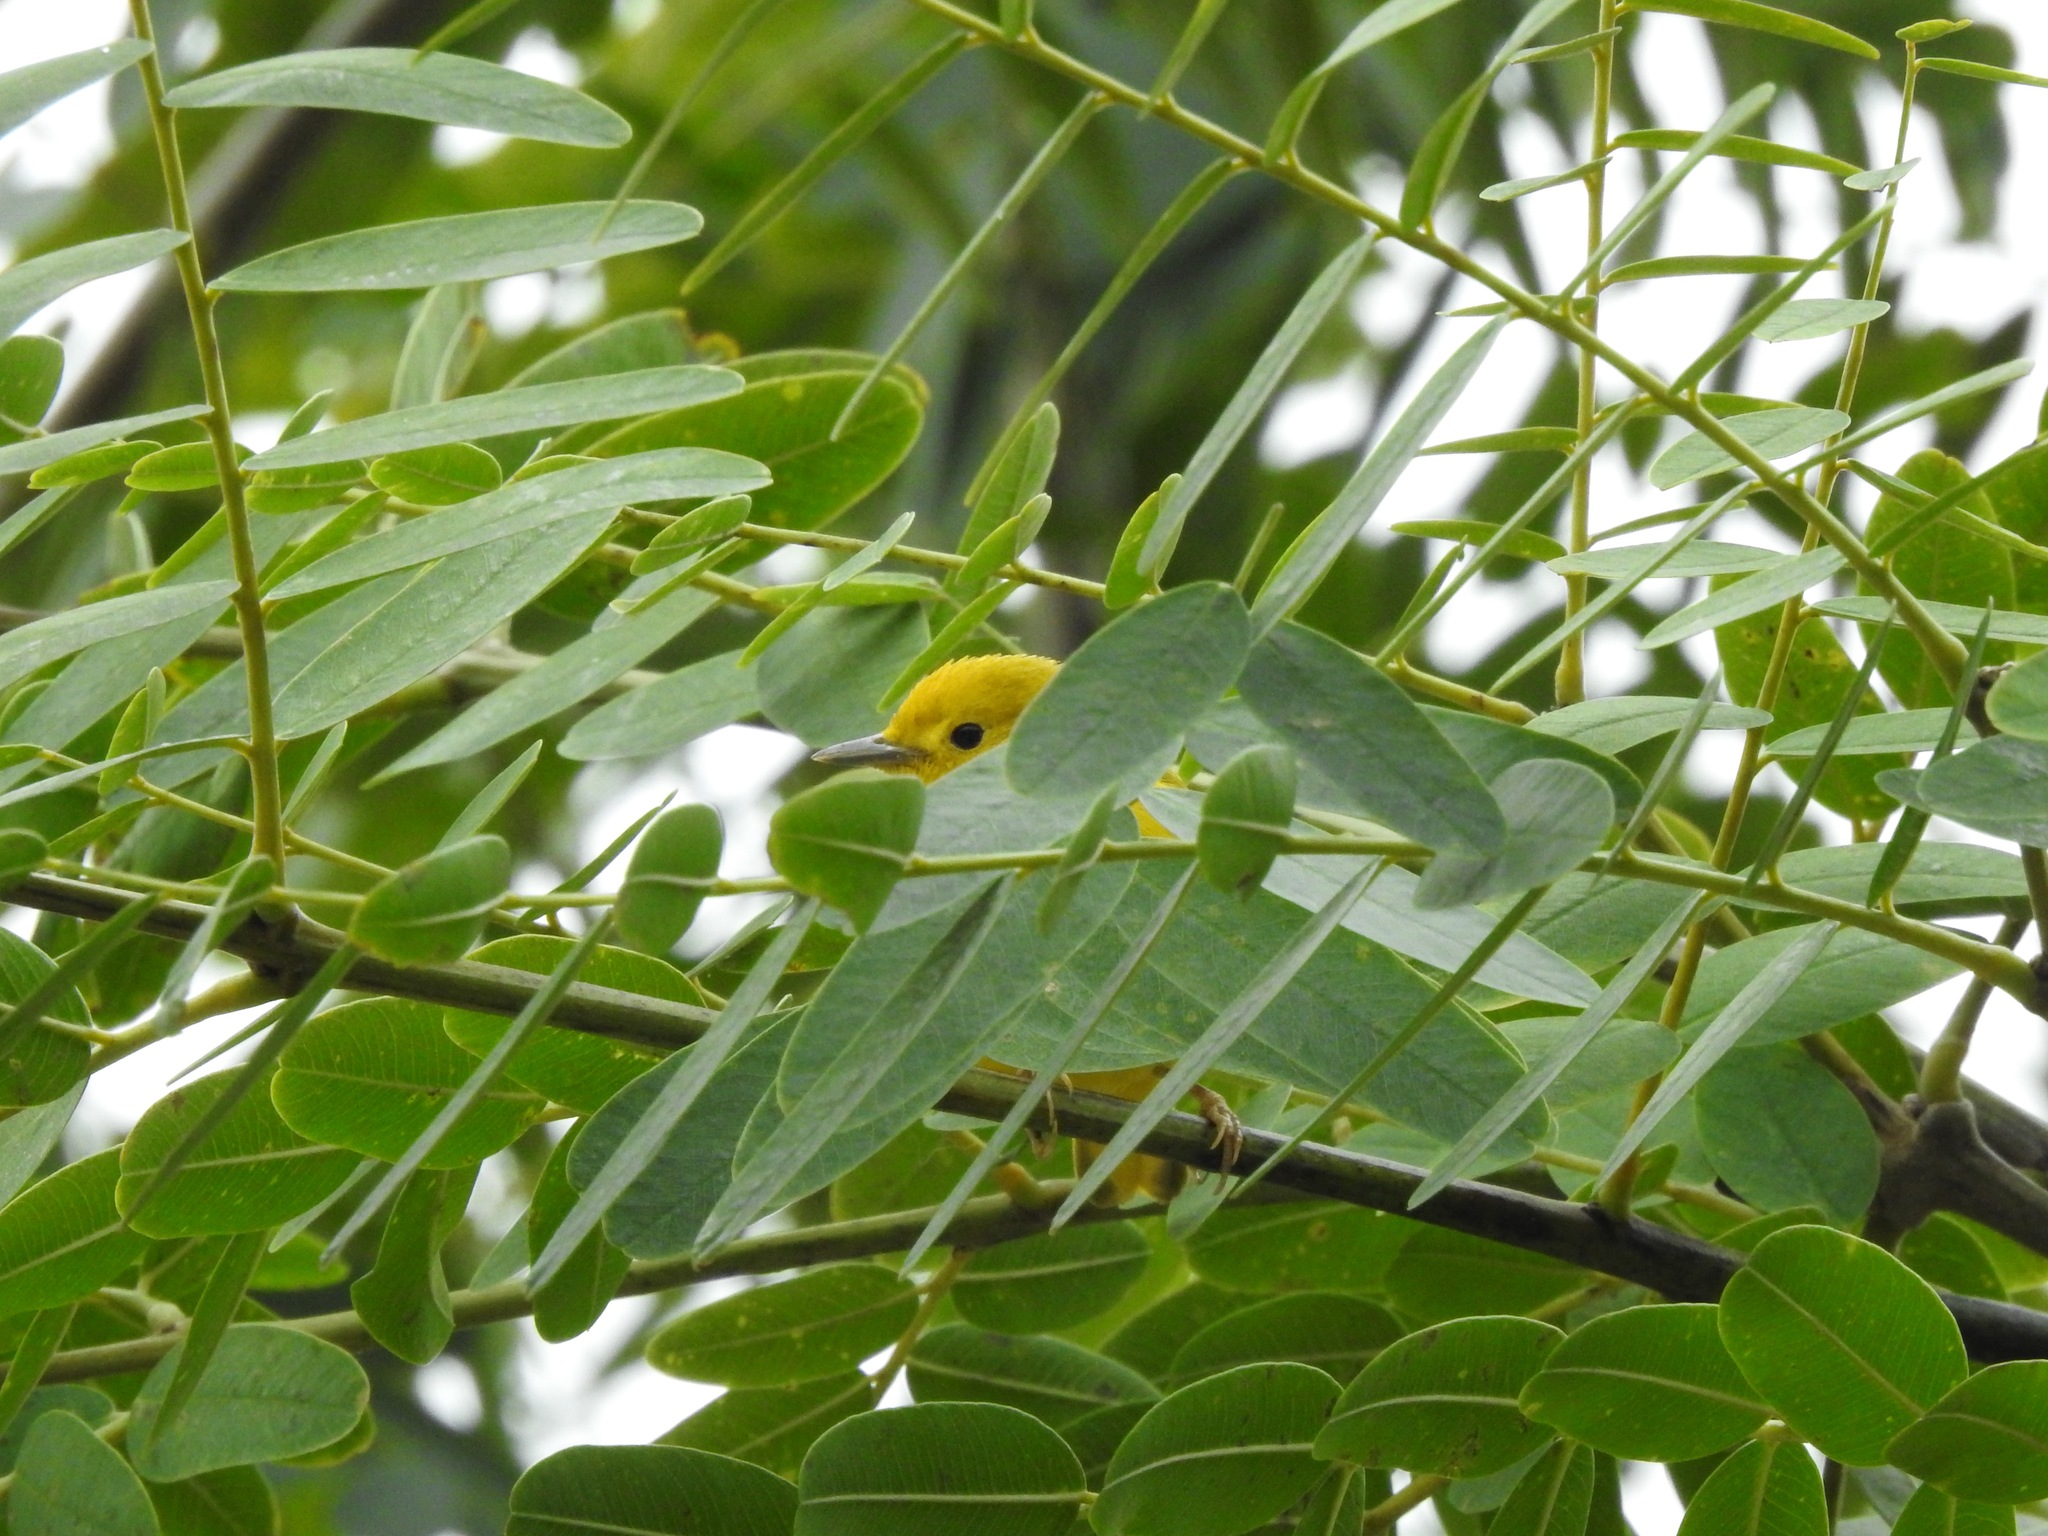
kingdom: Animalia
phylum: Chordata
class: Aves
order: Passeriformes
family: Parulidae
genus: Setophaga
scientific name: Setophaga petechia
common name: Yellow warbler
